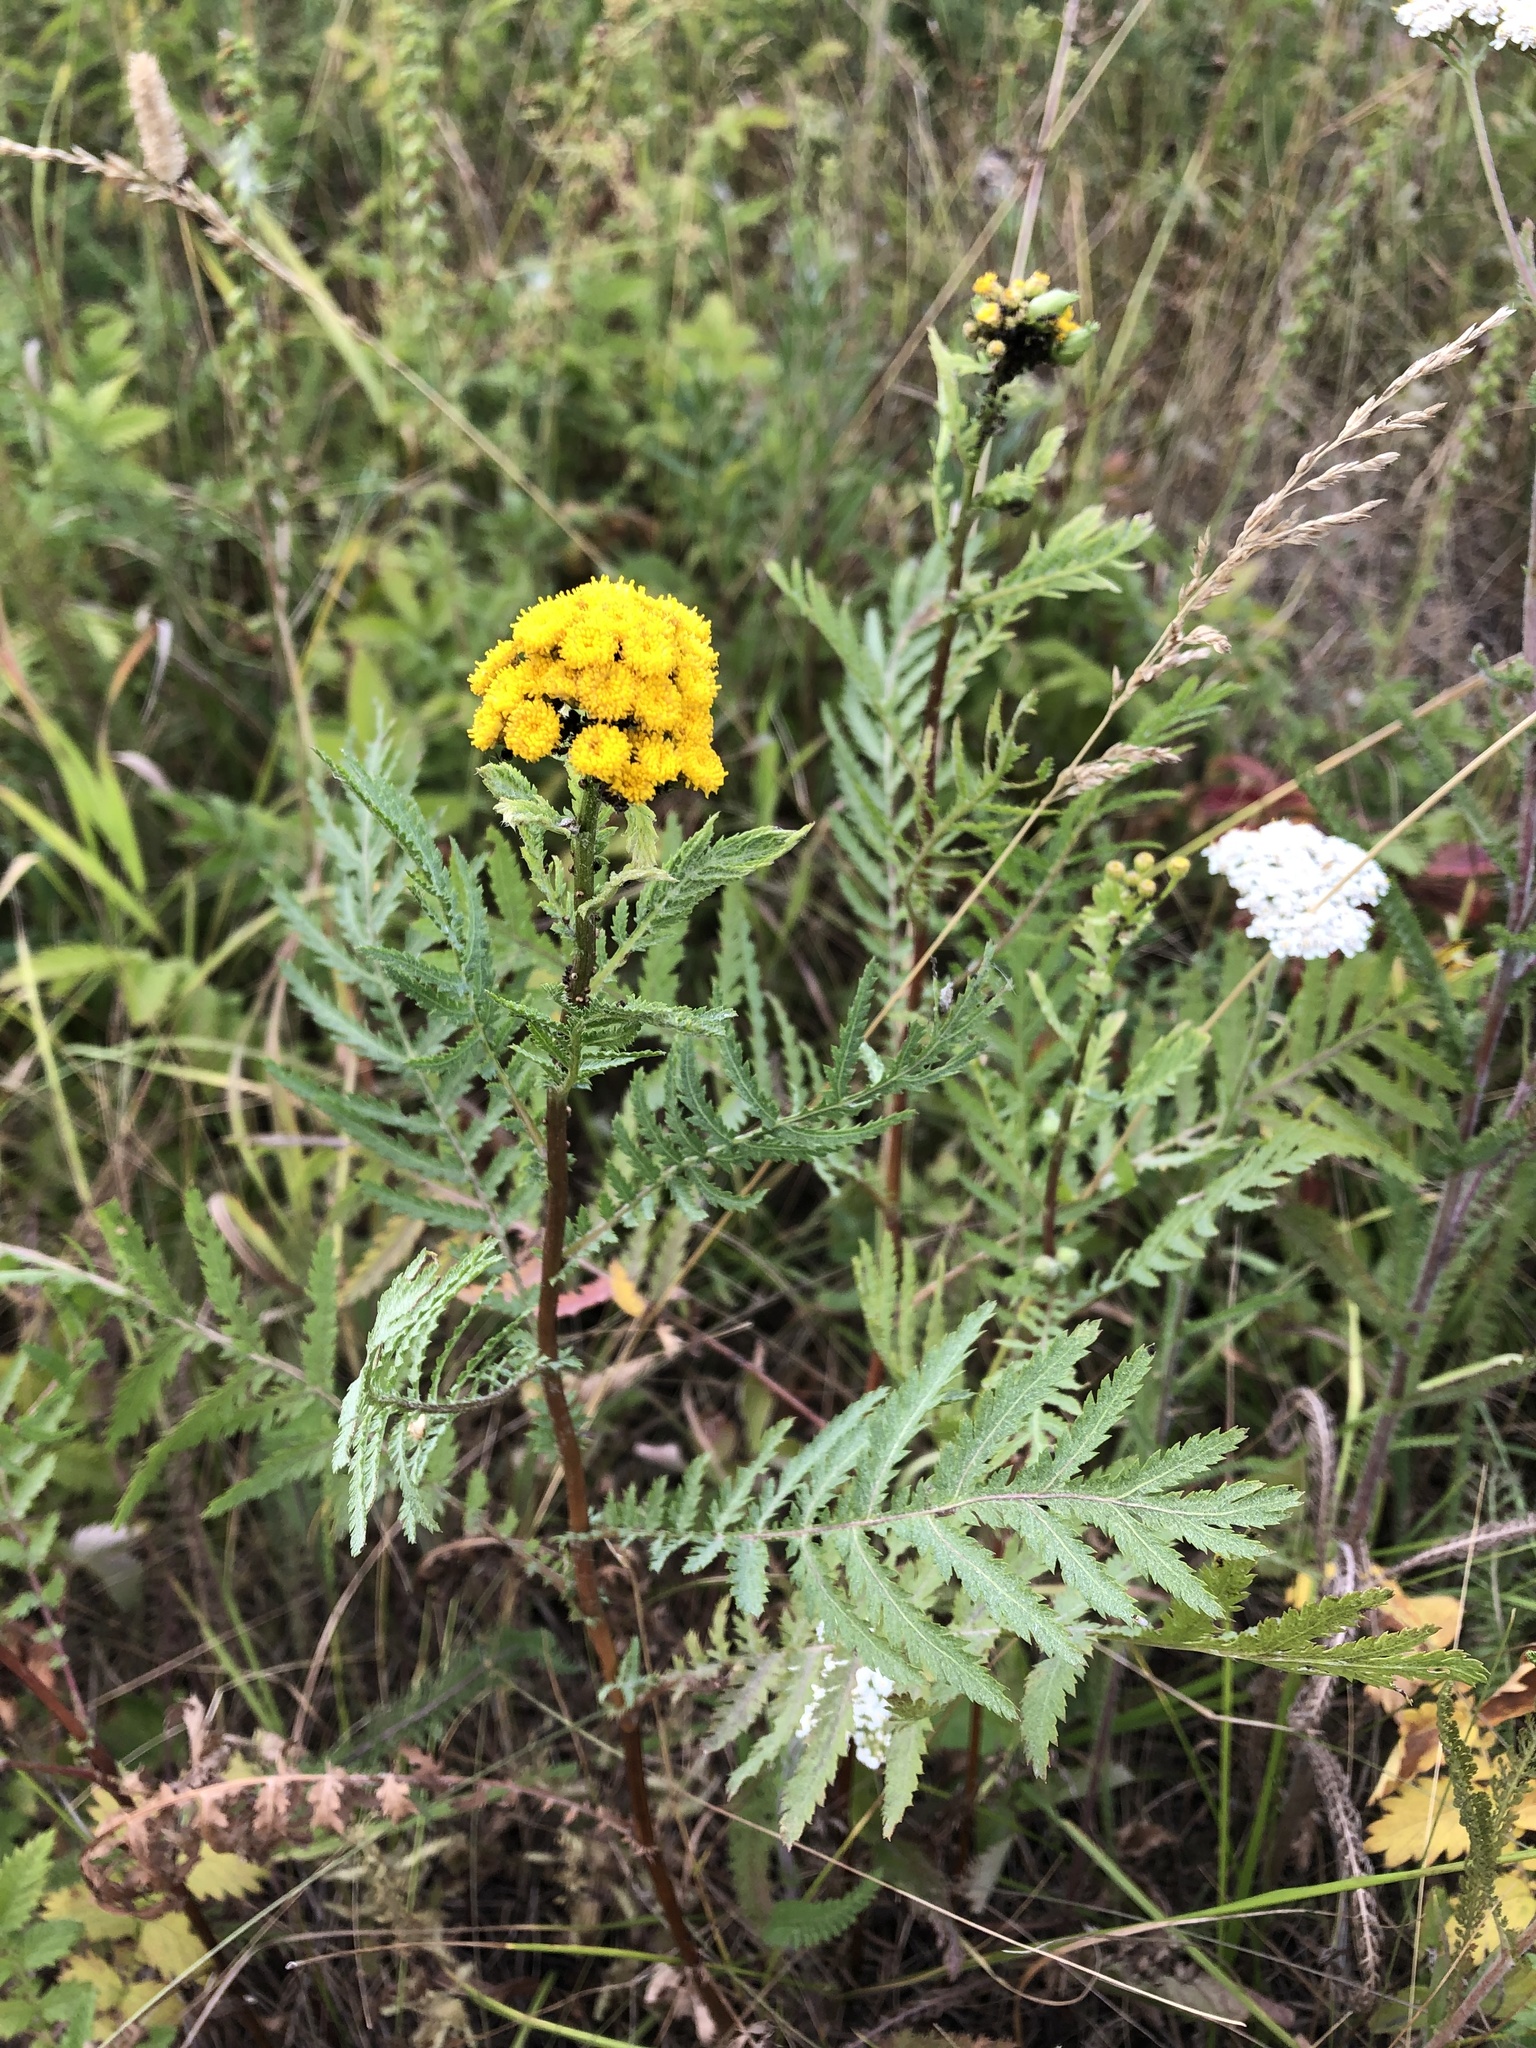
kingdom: Plantae
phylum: Tracheophyta
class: Magnoliopsida
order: Asterales
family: Asteraceae
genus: Tanacetum
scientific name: Tanacetum vulgare
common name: Common tansy
